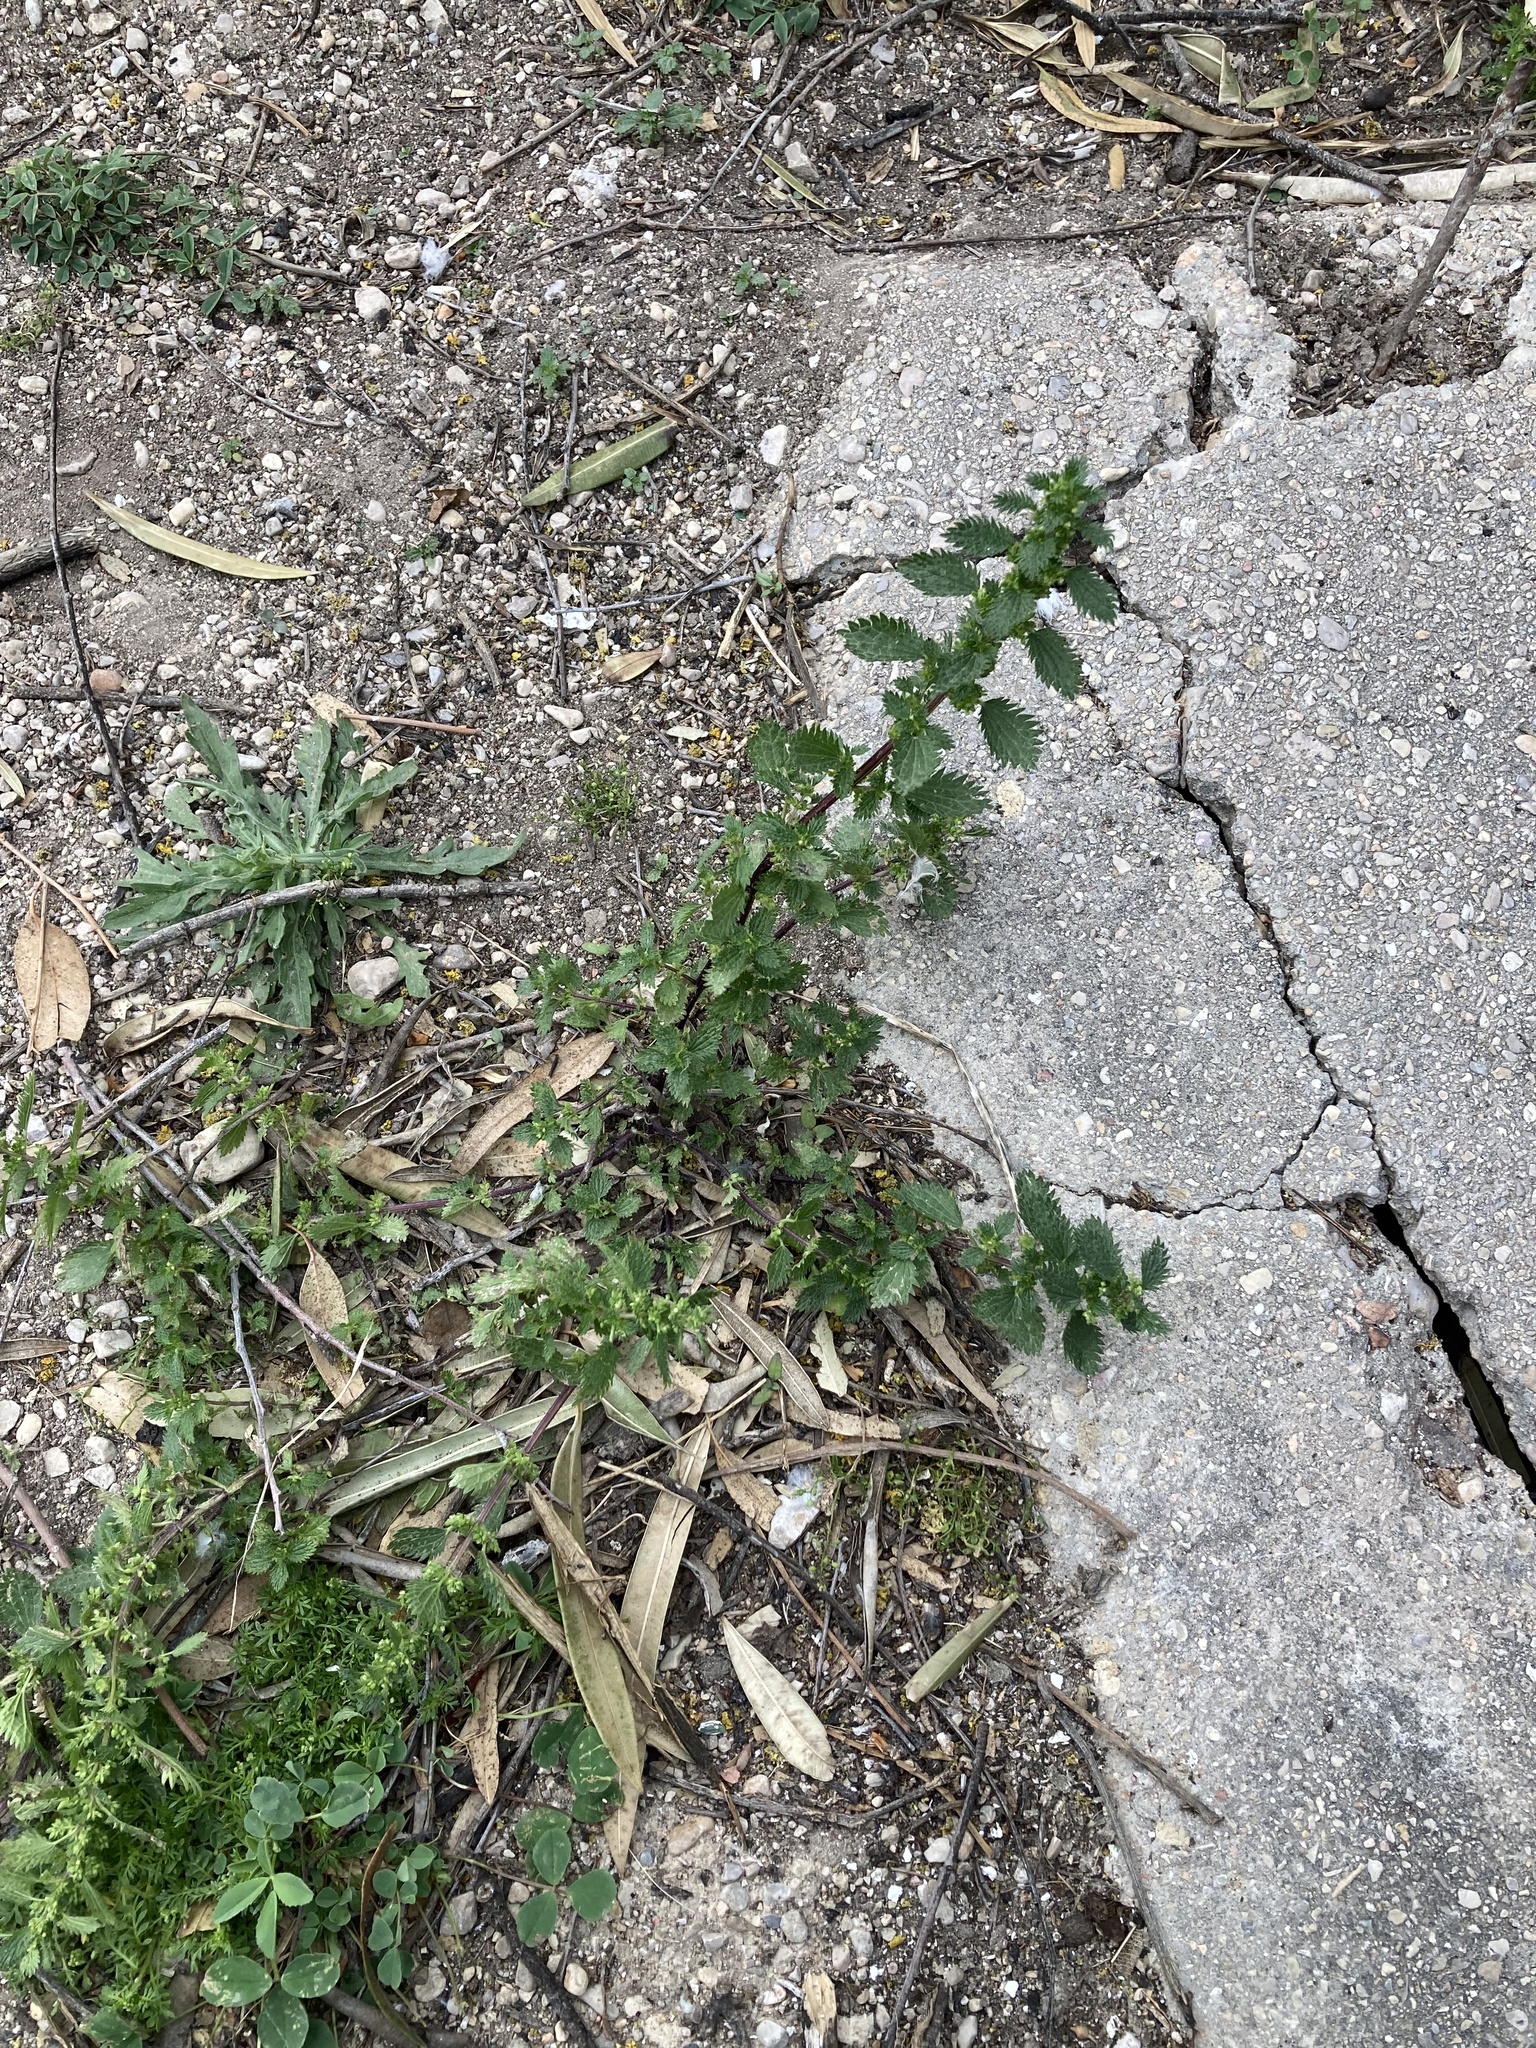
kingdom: Plantae
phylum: Tracheophyta
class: Magnoliopsida
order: Rosales
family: Urticaceae
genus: Urtica
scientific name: Urtica urens
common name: Dwarf nettle
